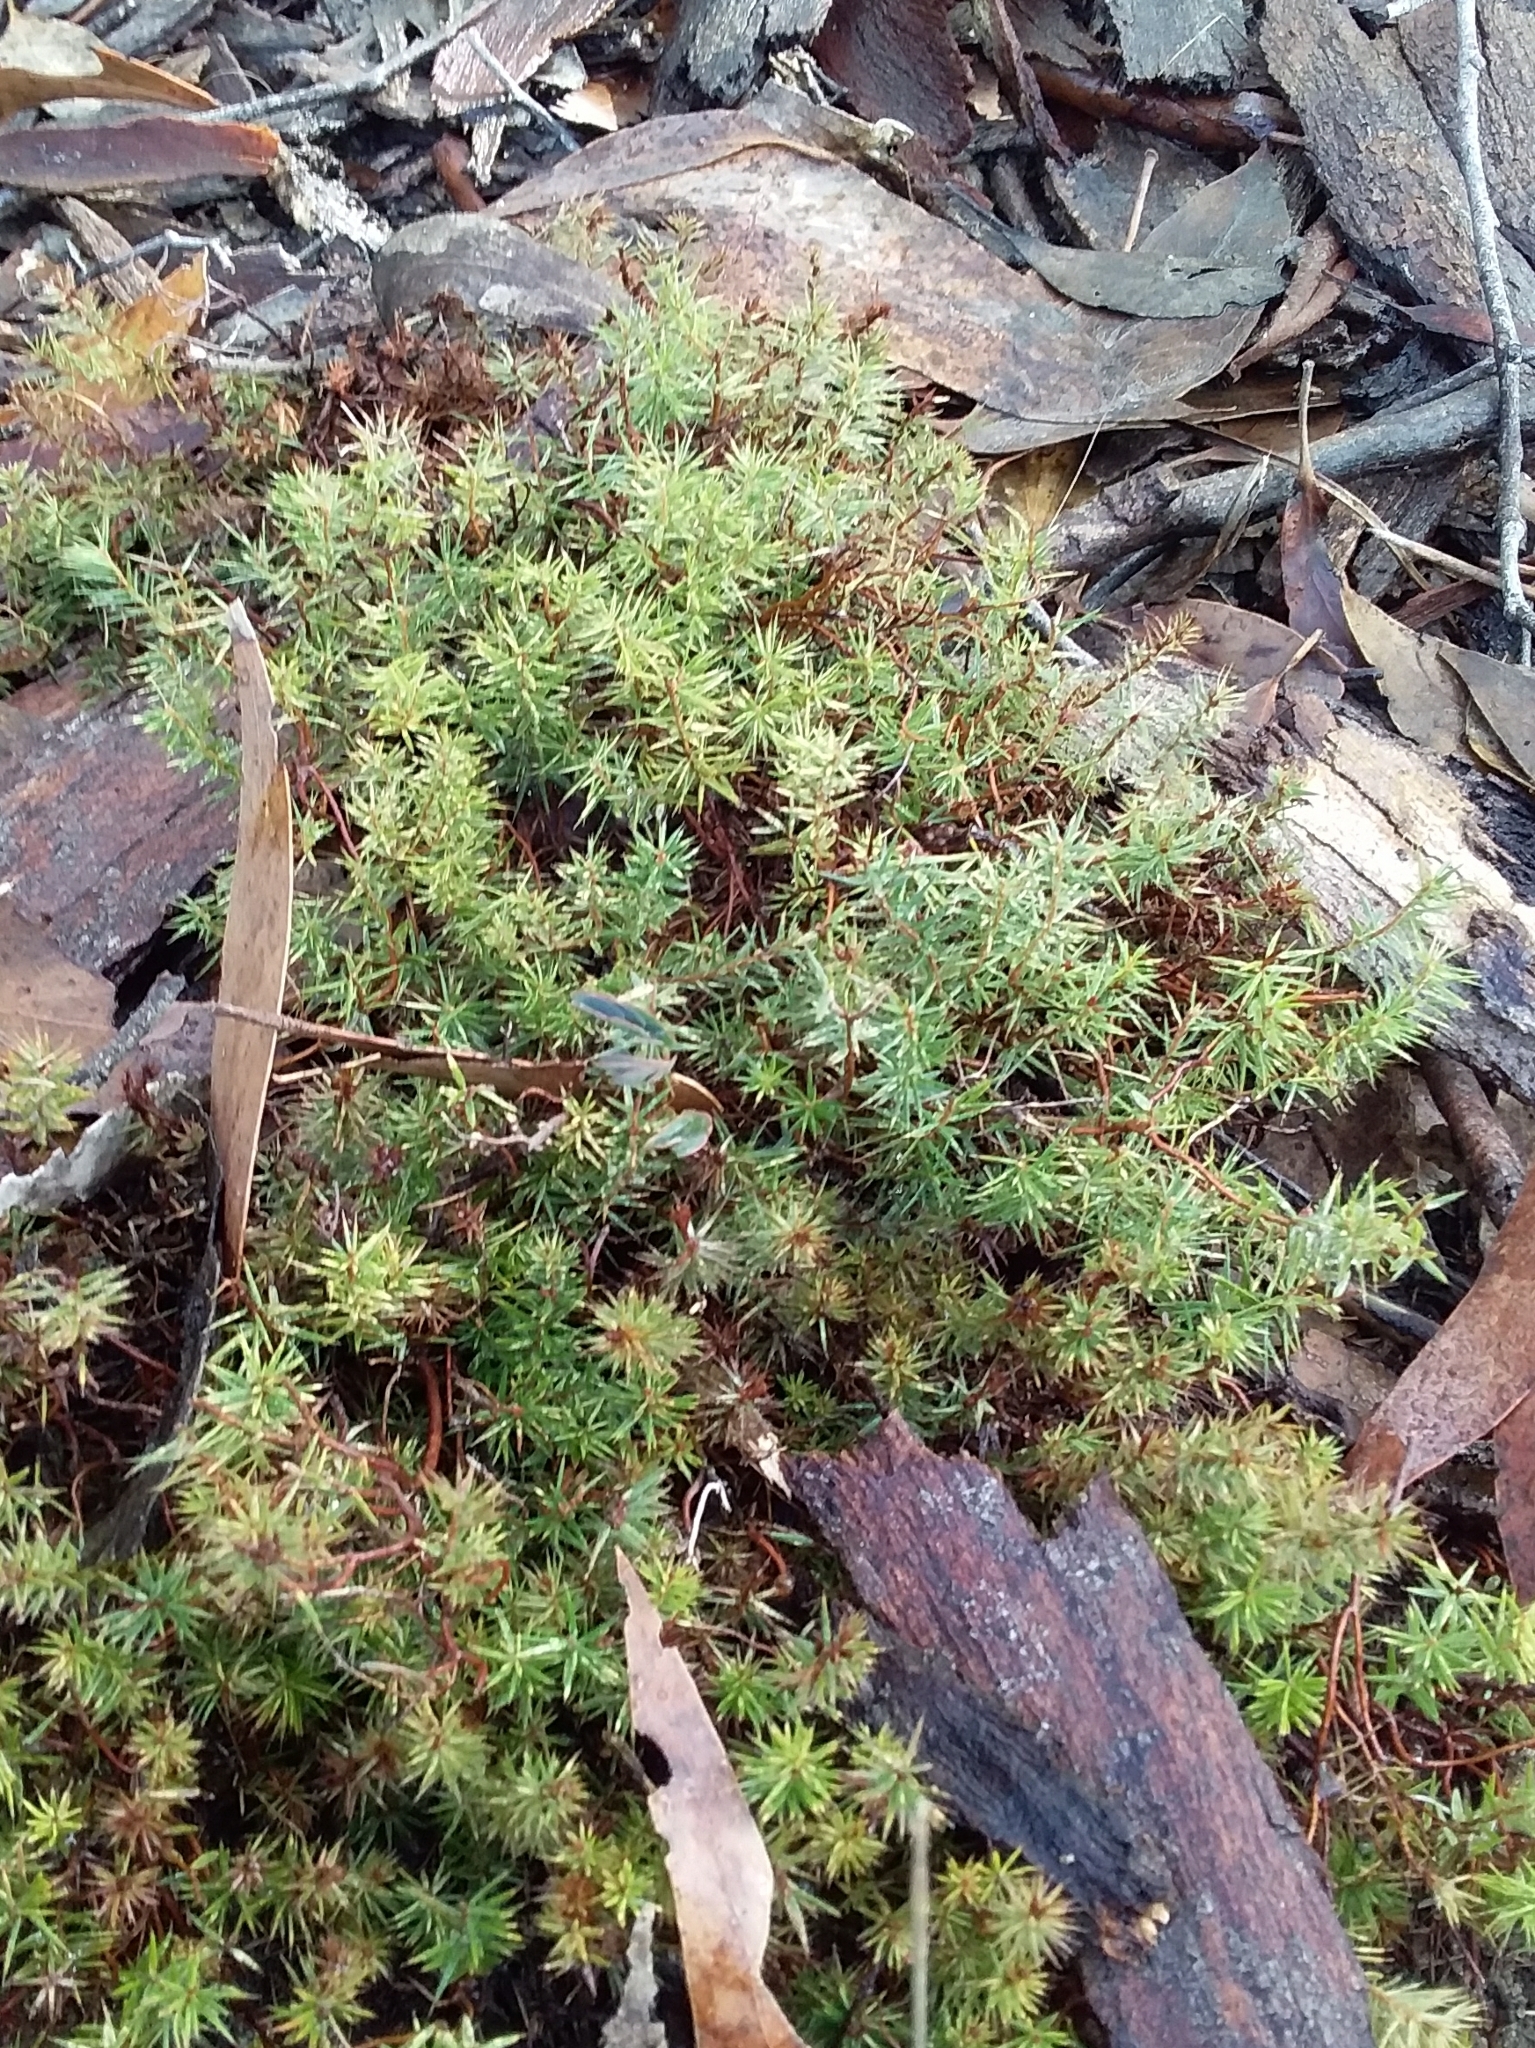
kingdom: Plantae
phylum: Tracheophyta
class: Magnoliopsida
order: Ericales
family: Ericaceae
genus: Acrotriche
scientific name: Acrotriche serrulata
